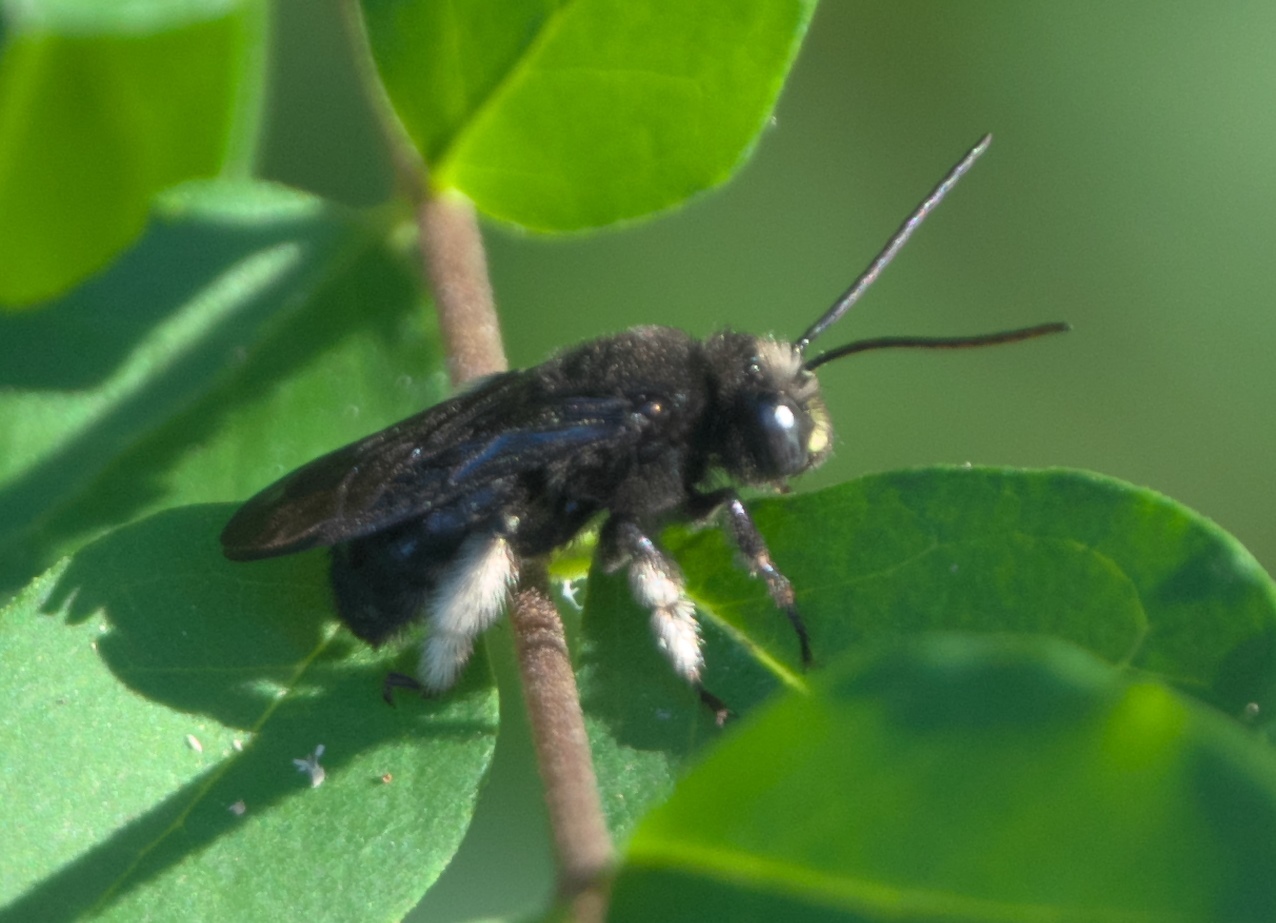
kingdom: Animalia
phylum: Arthropoda
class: Insecta
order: Hymenoptera
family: Apidae
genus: Melissodes
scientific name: Melissodes bimaculatus
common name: Two-spotted long-horned bee
